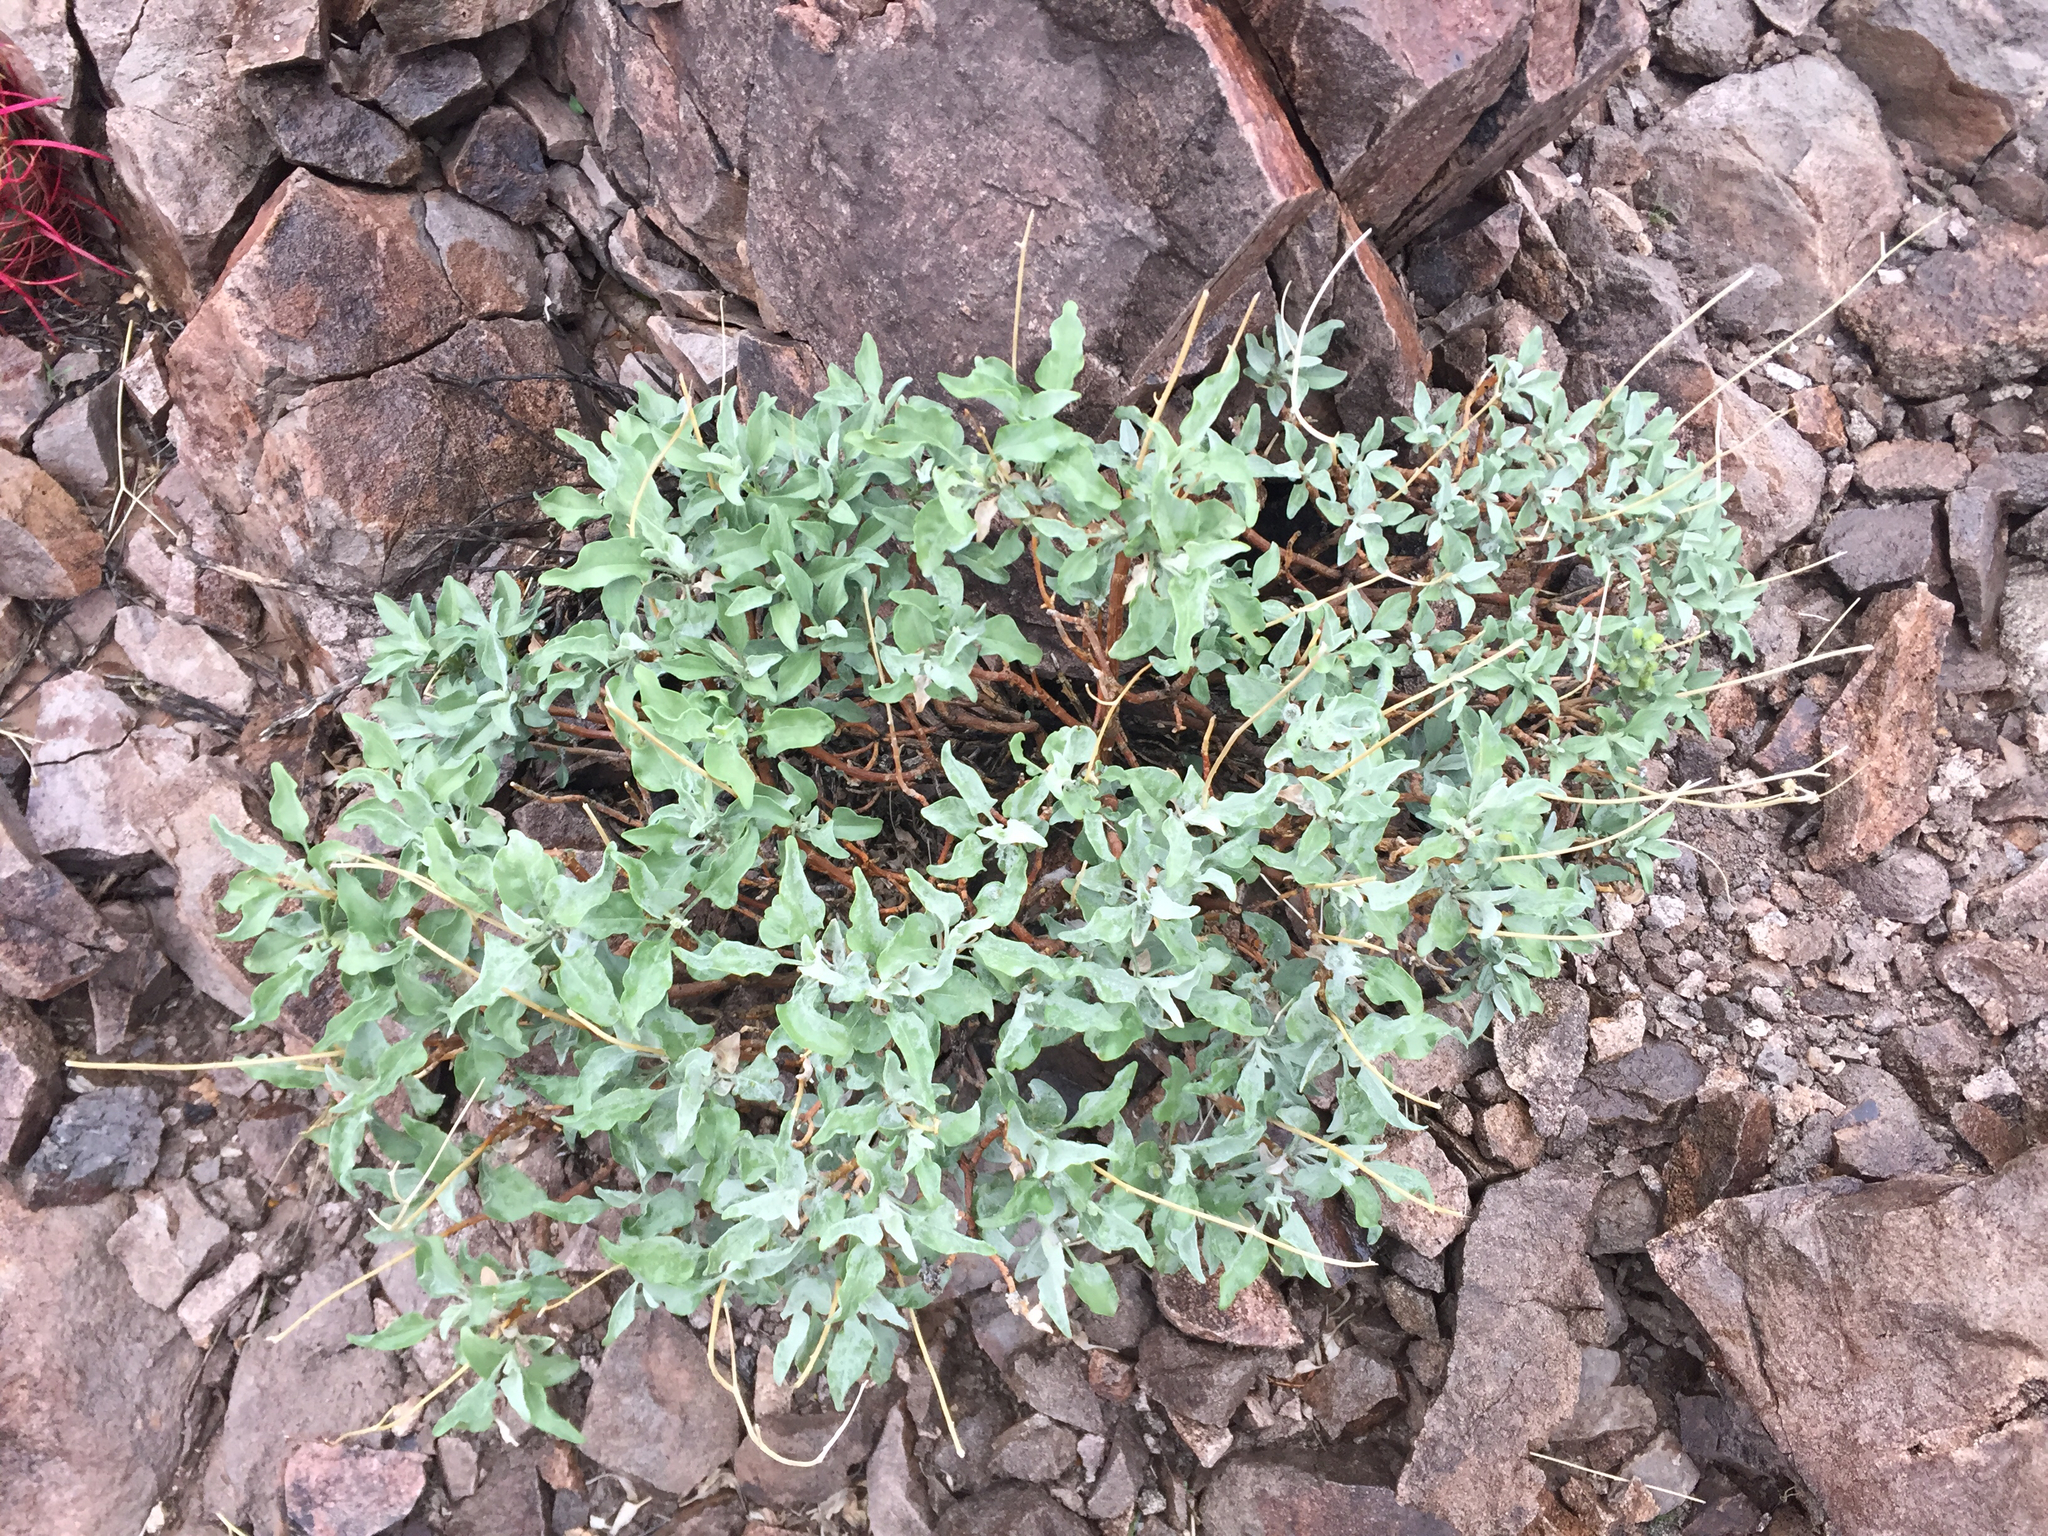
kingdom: Plantae
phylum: Tracheophyta
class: Magnoliopsida
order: Asterales
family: Asteraceae
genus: Encelia
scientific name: Encelia farinosa
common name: Brittlebush
